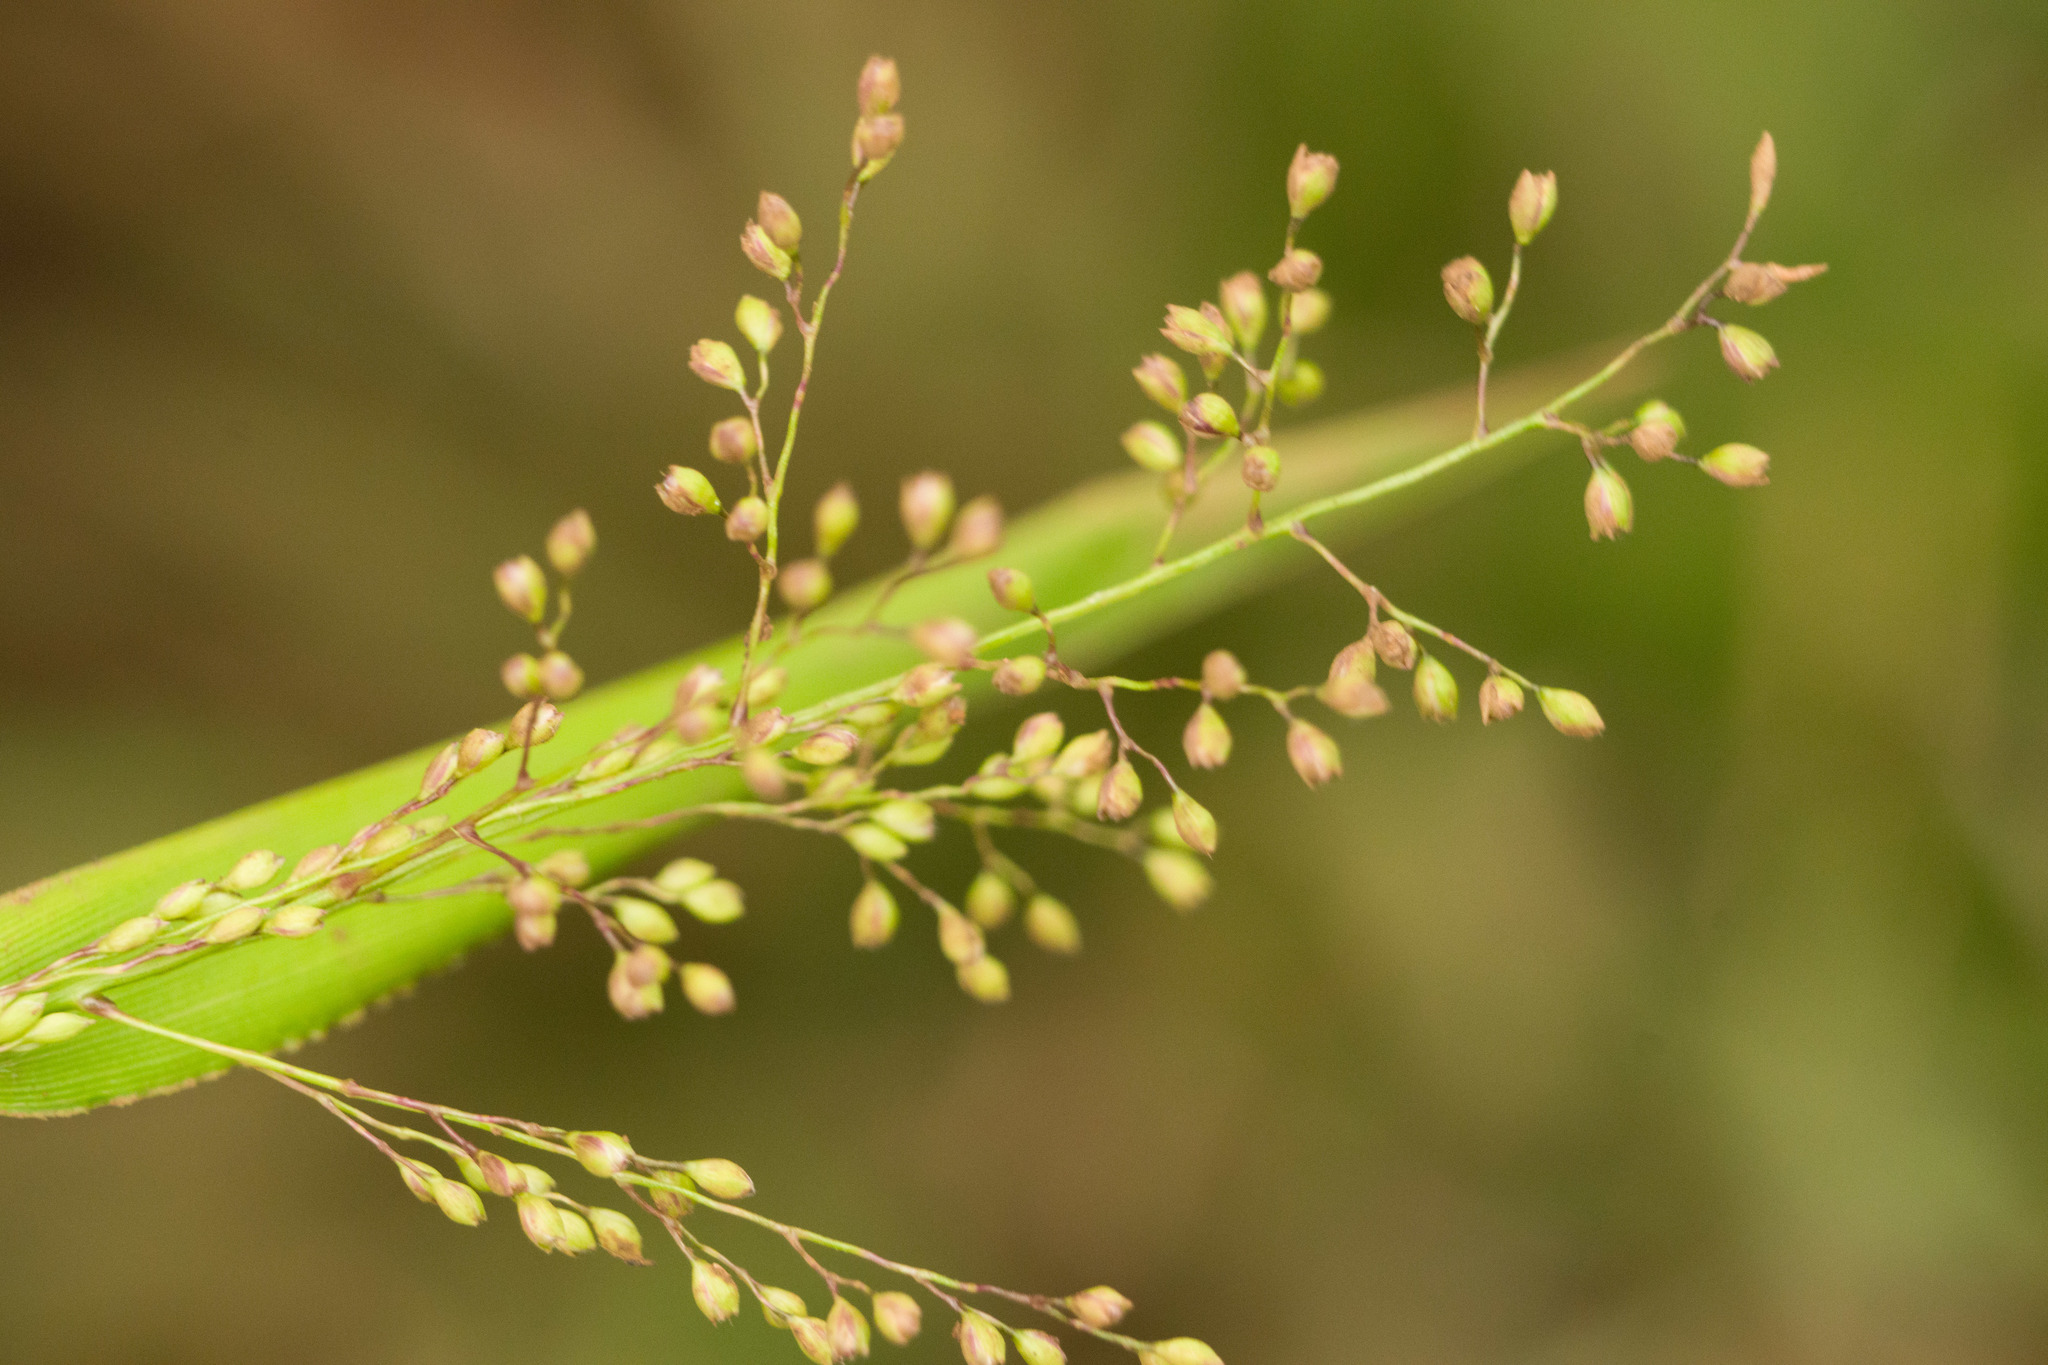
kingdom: Plantae
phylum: Tracheophyta
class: Liliopsida
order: Poales
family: Poaceae
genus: Isachne
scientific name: Isachne distichophylla
